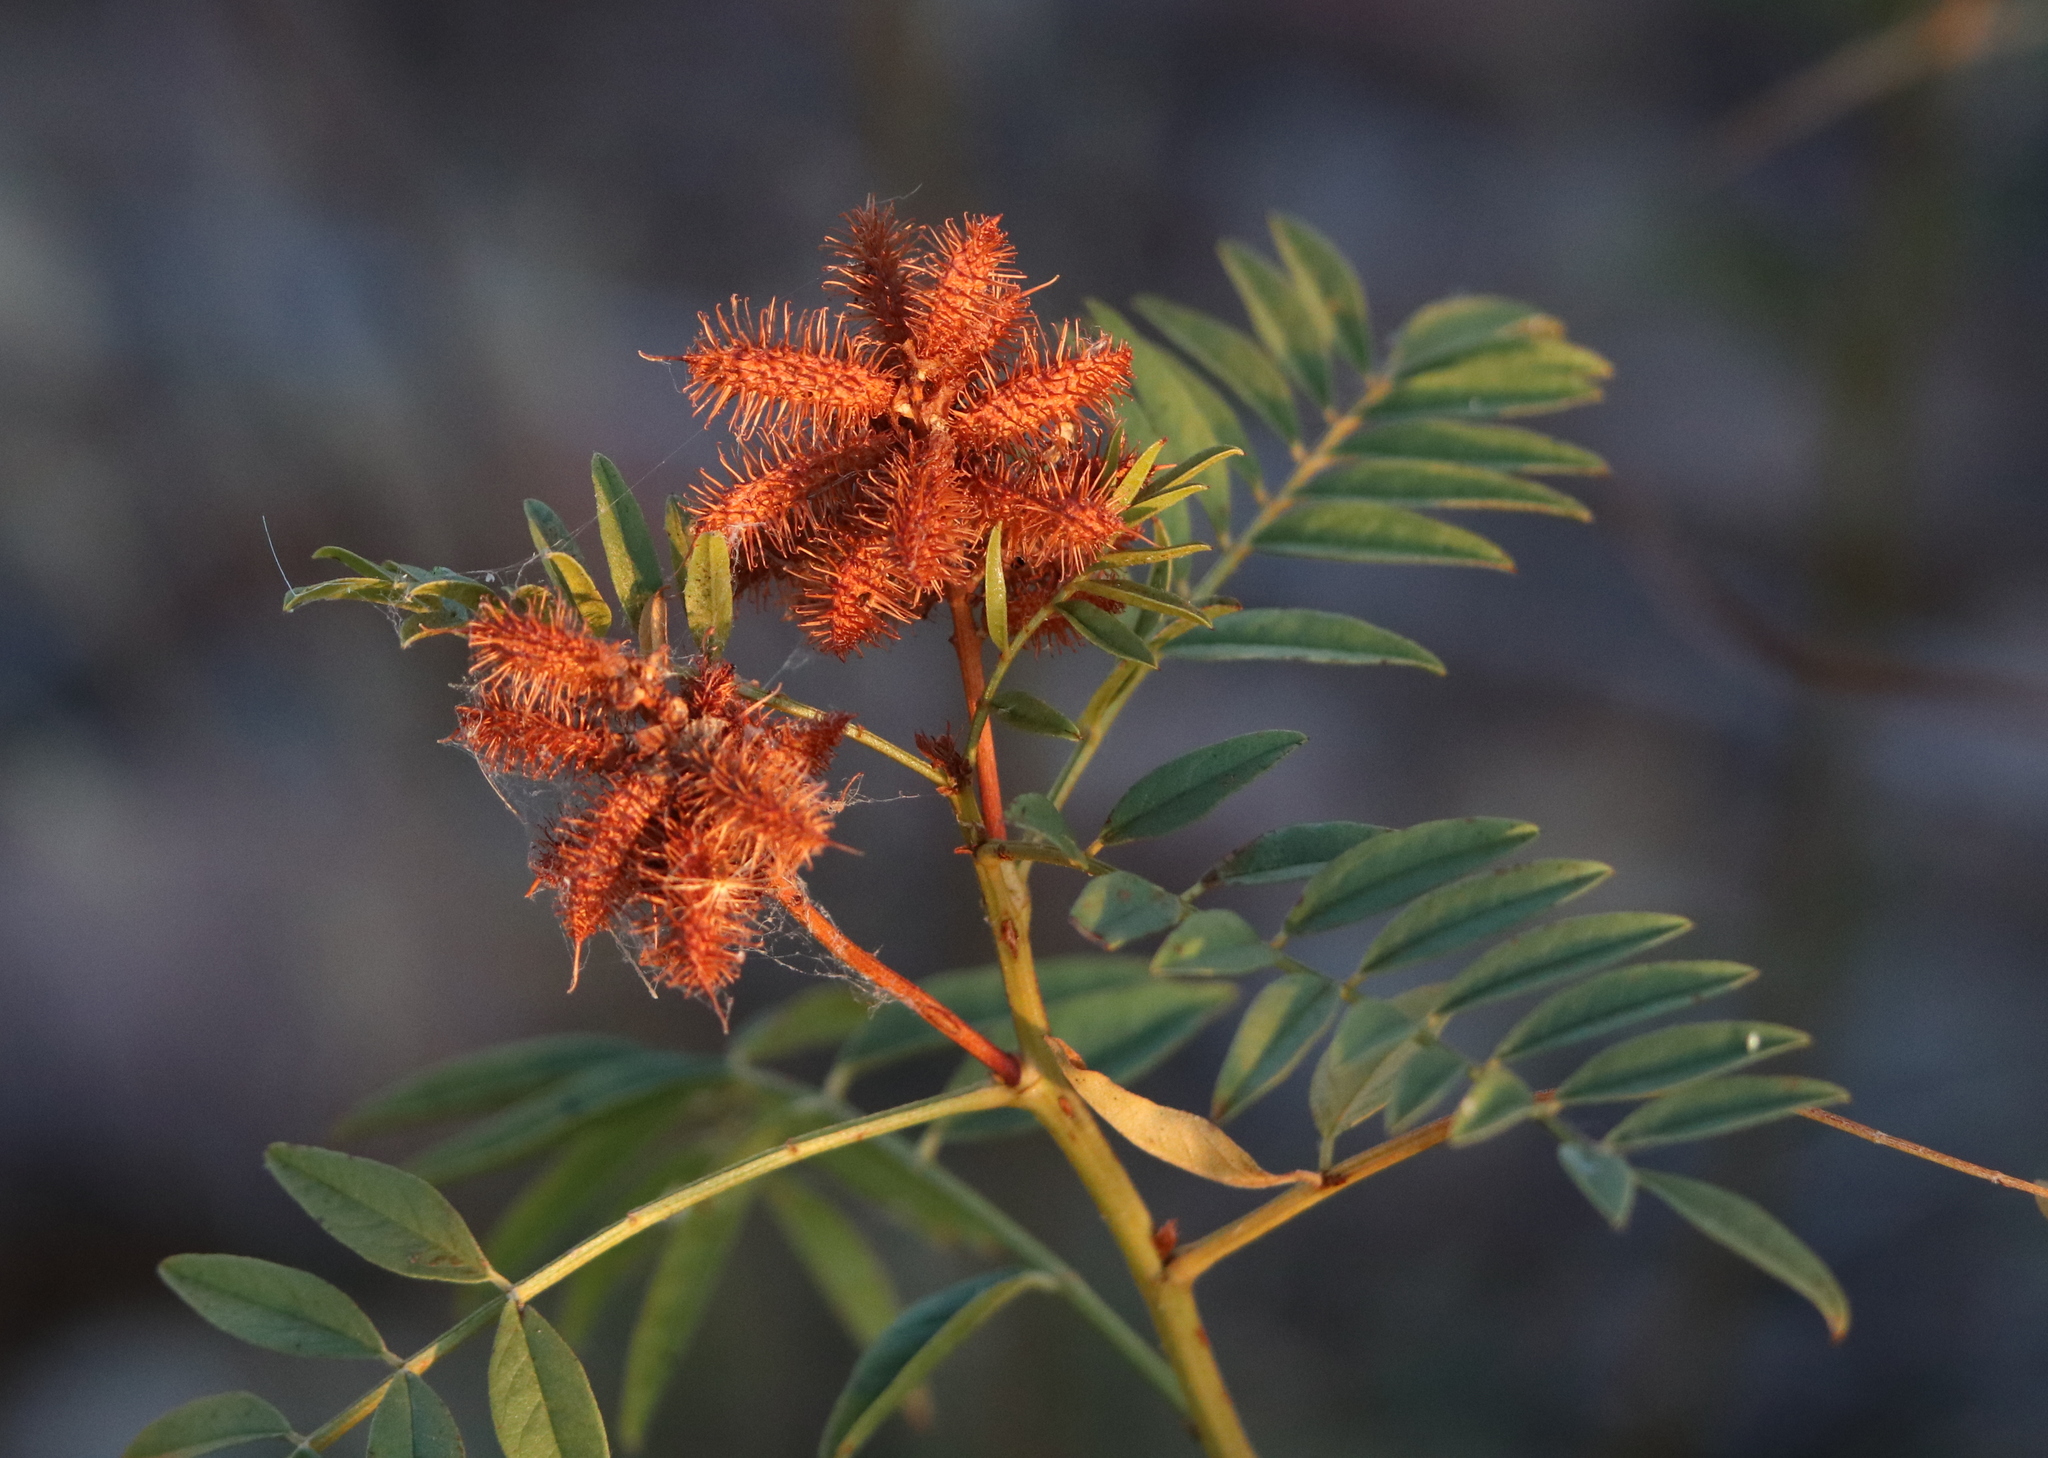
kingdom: Plantae
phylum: Tracheophyta
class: Magnoliopsida
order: Fabales
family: Fabaceae
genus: Glycyrrhiza
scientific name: Glycyrrhiza lepidota
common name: American liquorice
